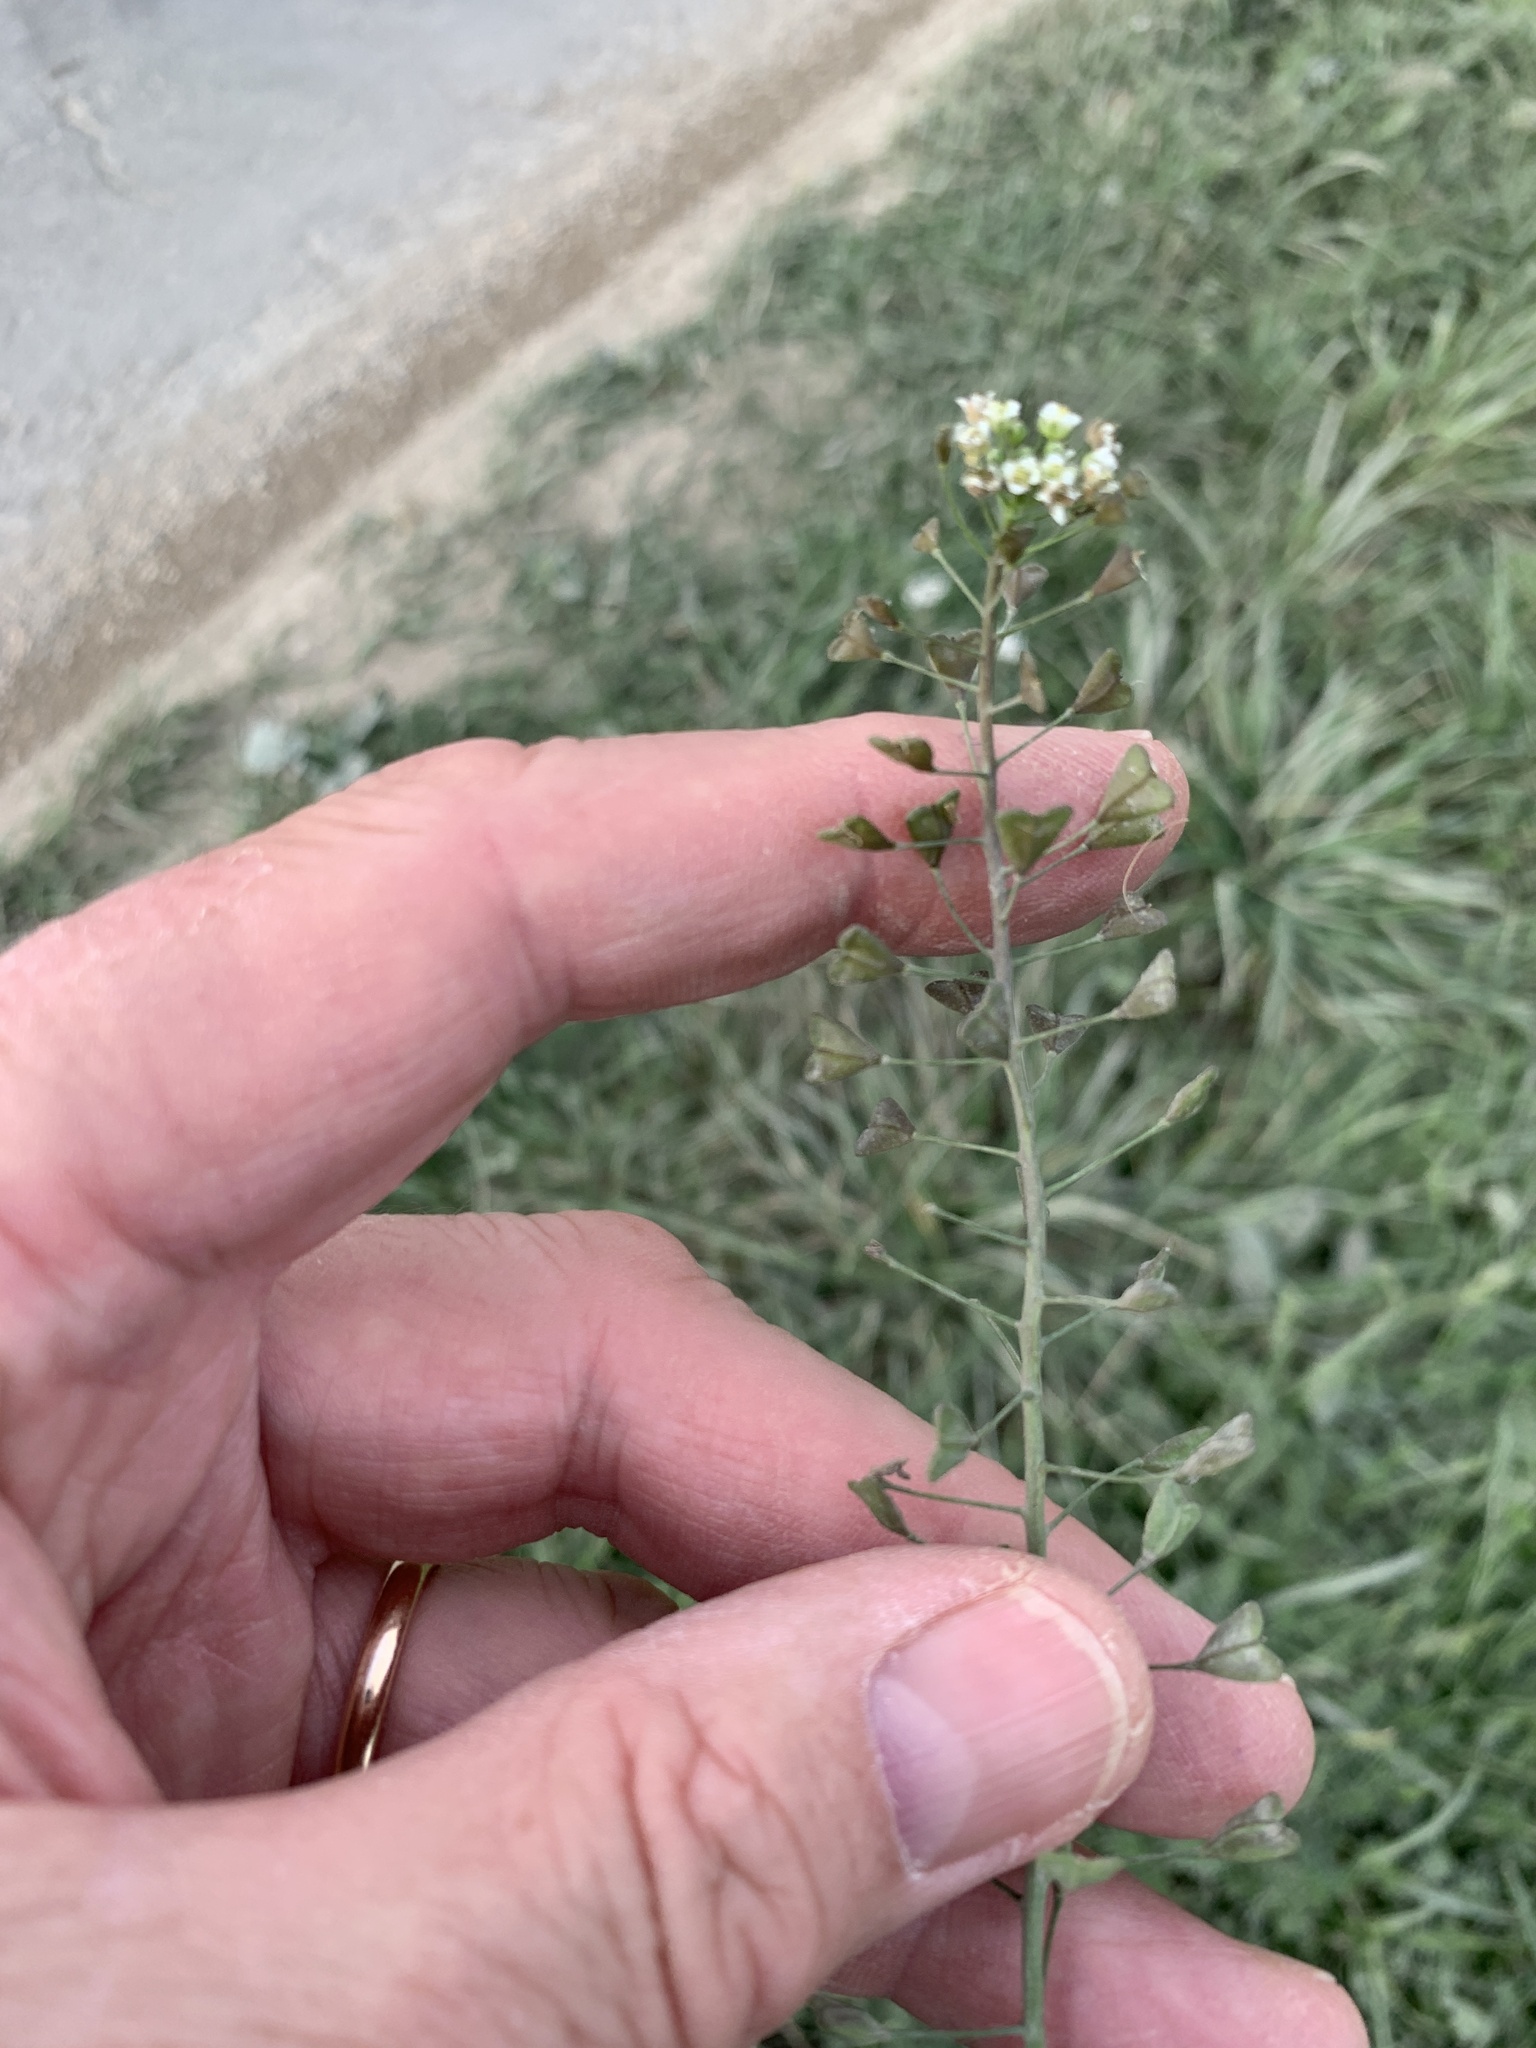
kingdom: Plantae
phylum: Tracheophyta
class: Magnoliopsida
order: Brassicales
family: Brassicaceae
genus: Capsella
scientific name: Capsella bursa-pastoris
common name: Shepherd's purse
